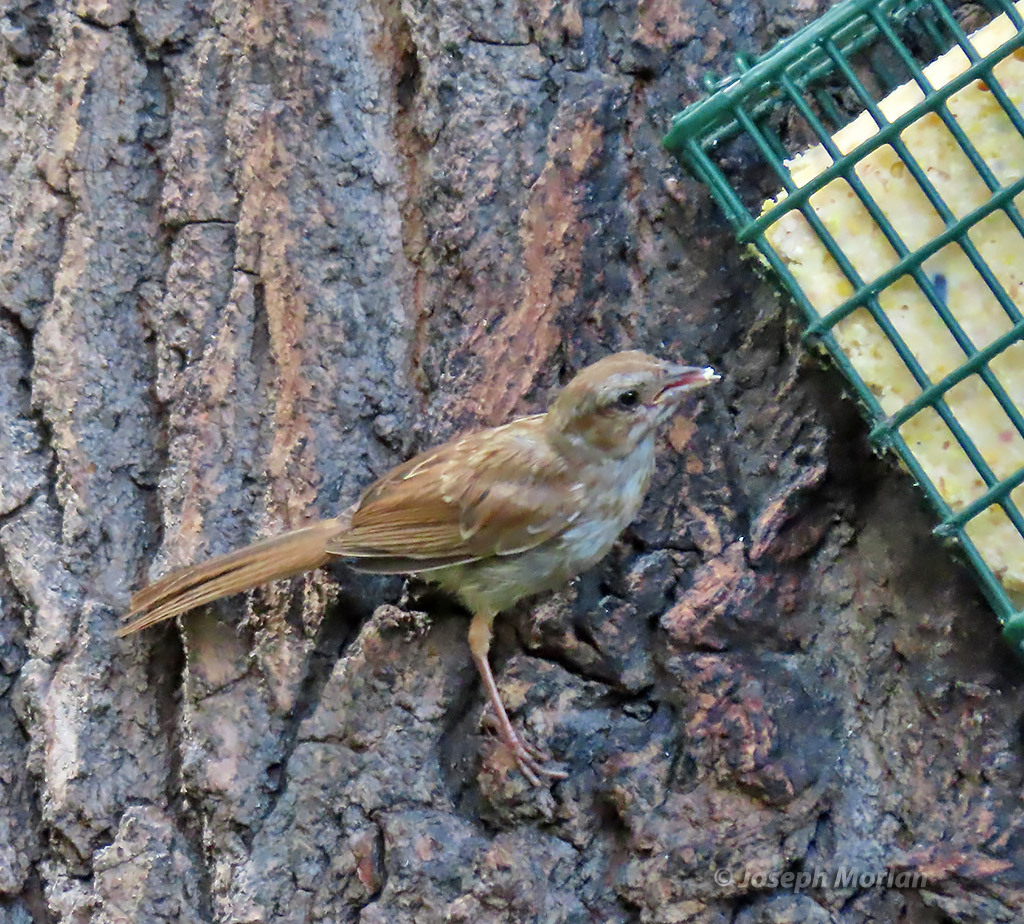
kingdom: Animalia
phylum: Chordata
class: Aves
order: Passeriformes
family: Passerellidae
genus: Melospiza
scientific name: Melospiza melodia
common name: Song sparrow
